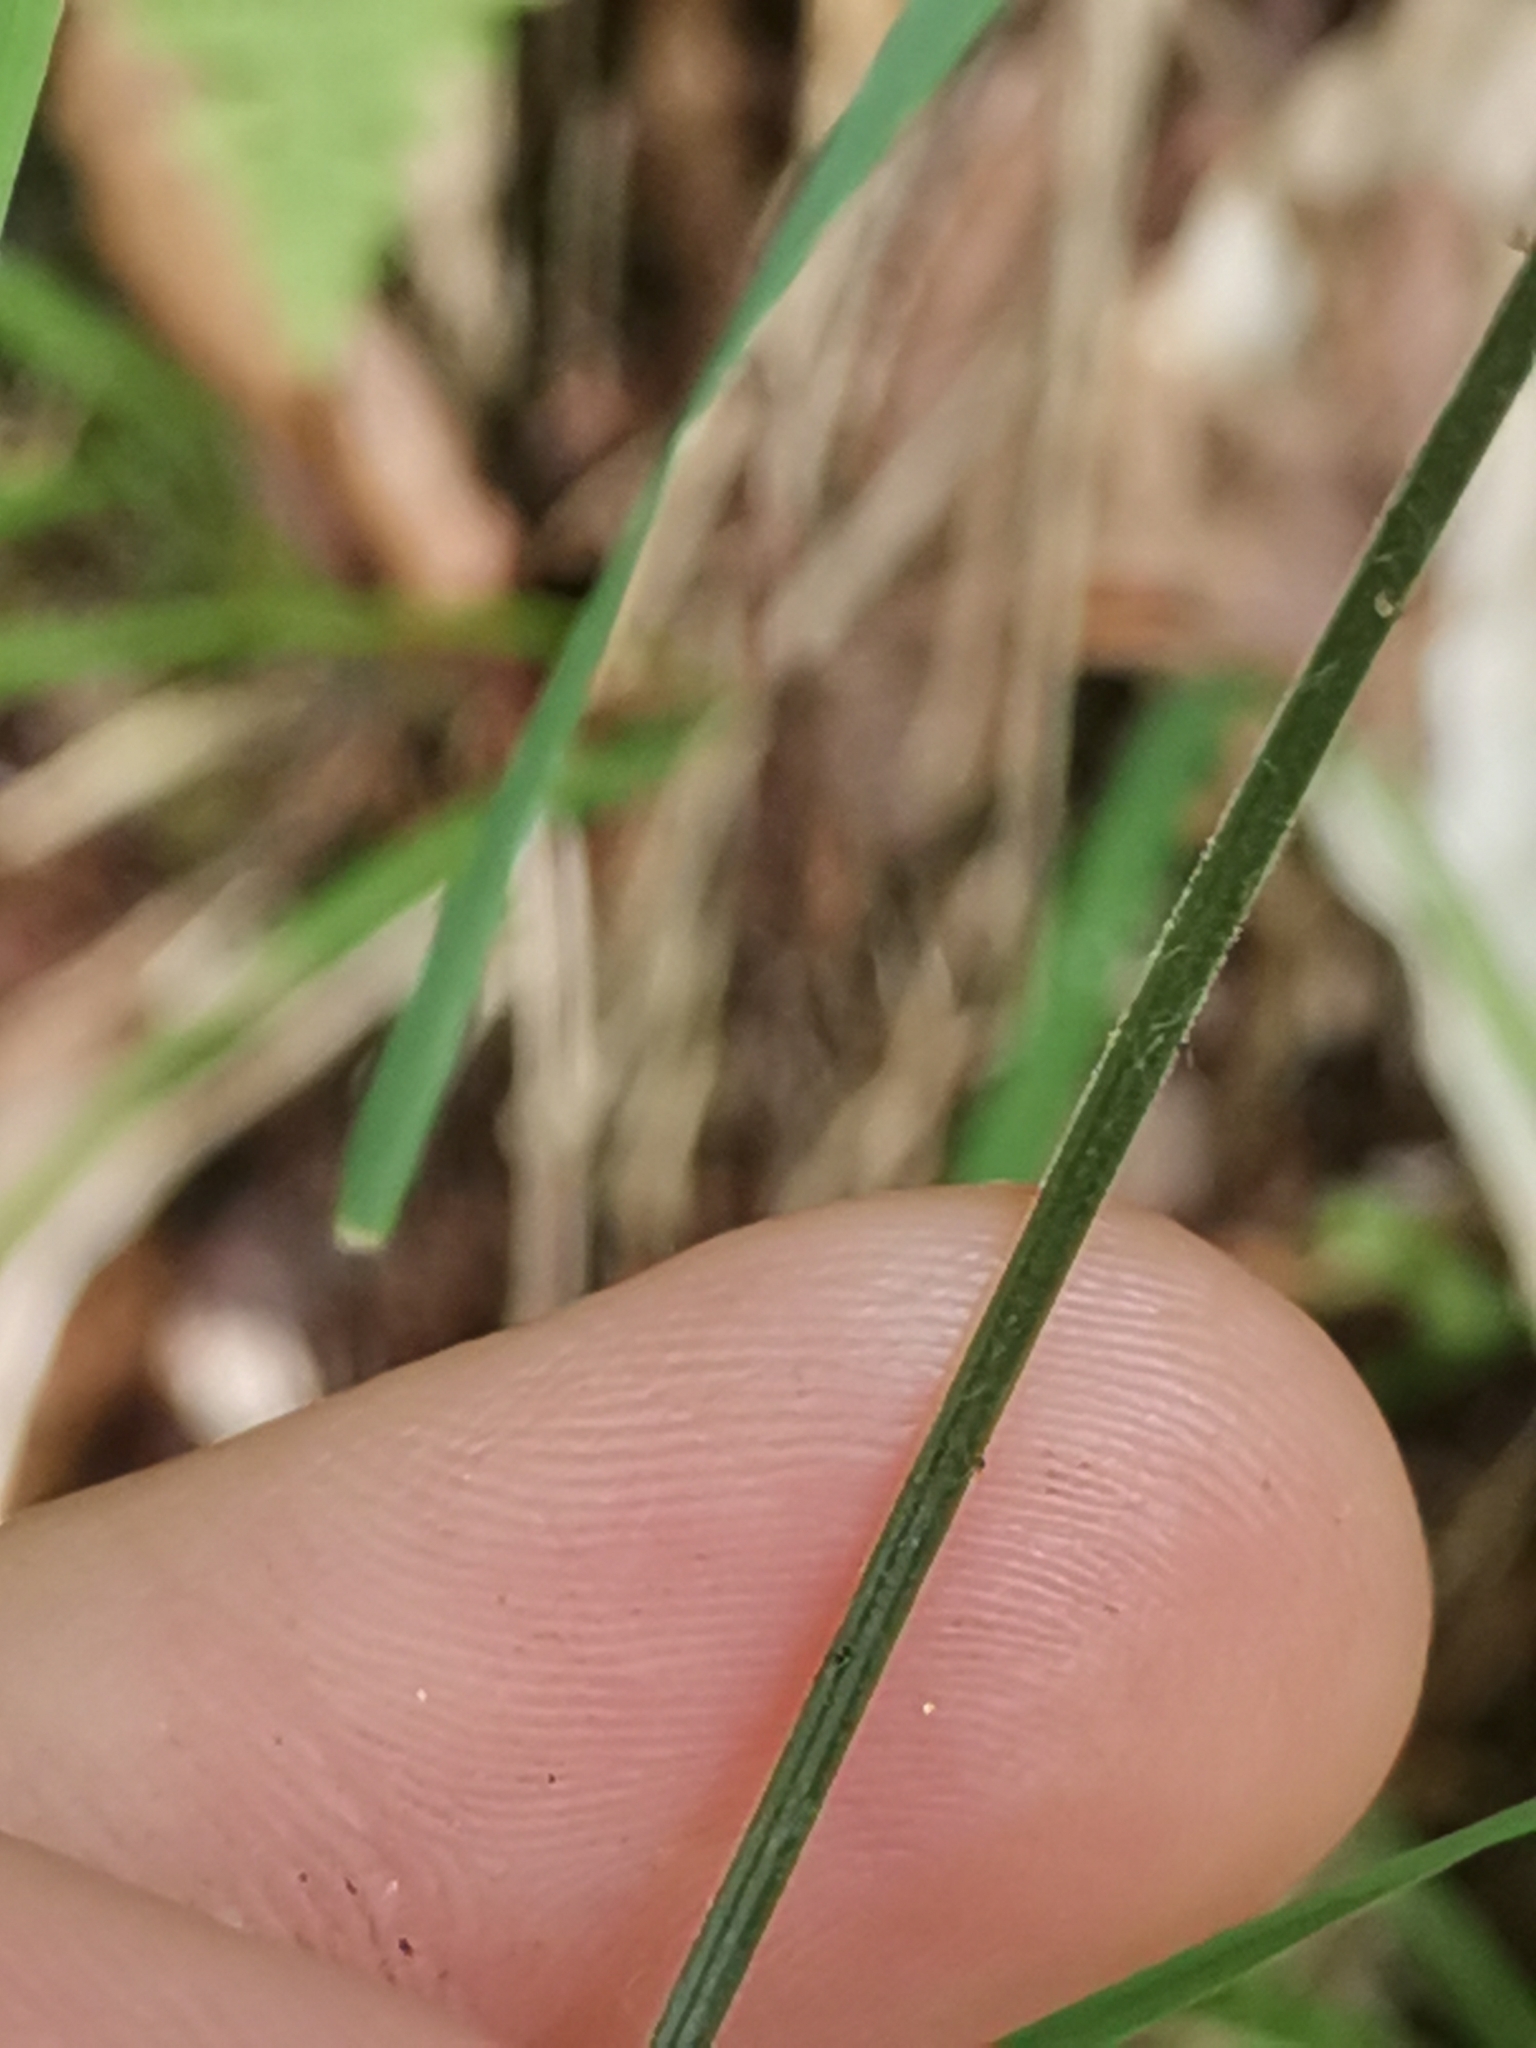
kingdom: Plantae
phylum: Tracheophyta
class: Polypodiopsida
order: Polypodiales
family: Cystopteridaceae
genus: Gymnocarpium
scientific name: Gymnocarpium robertianum
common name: Limestone fern
